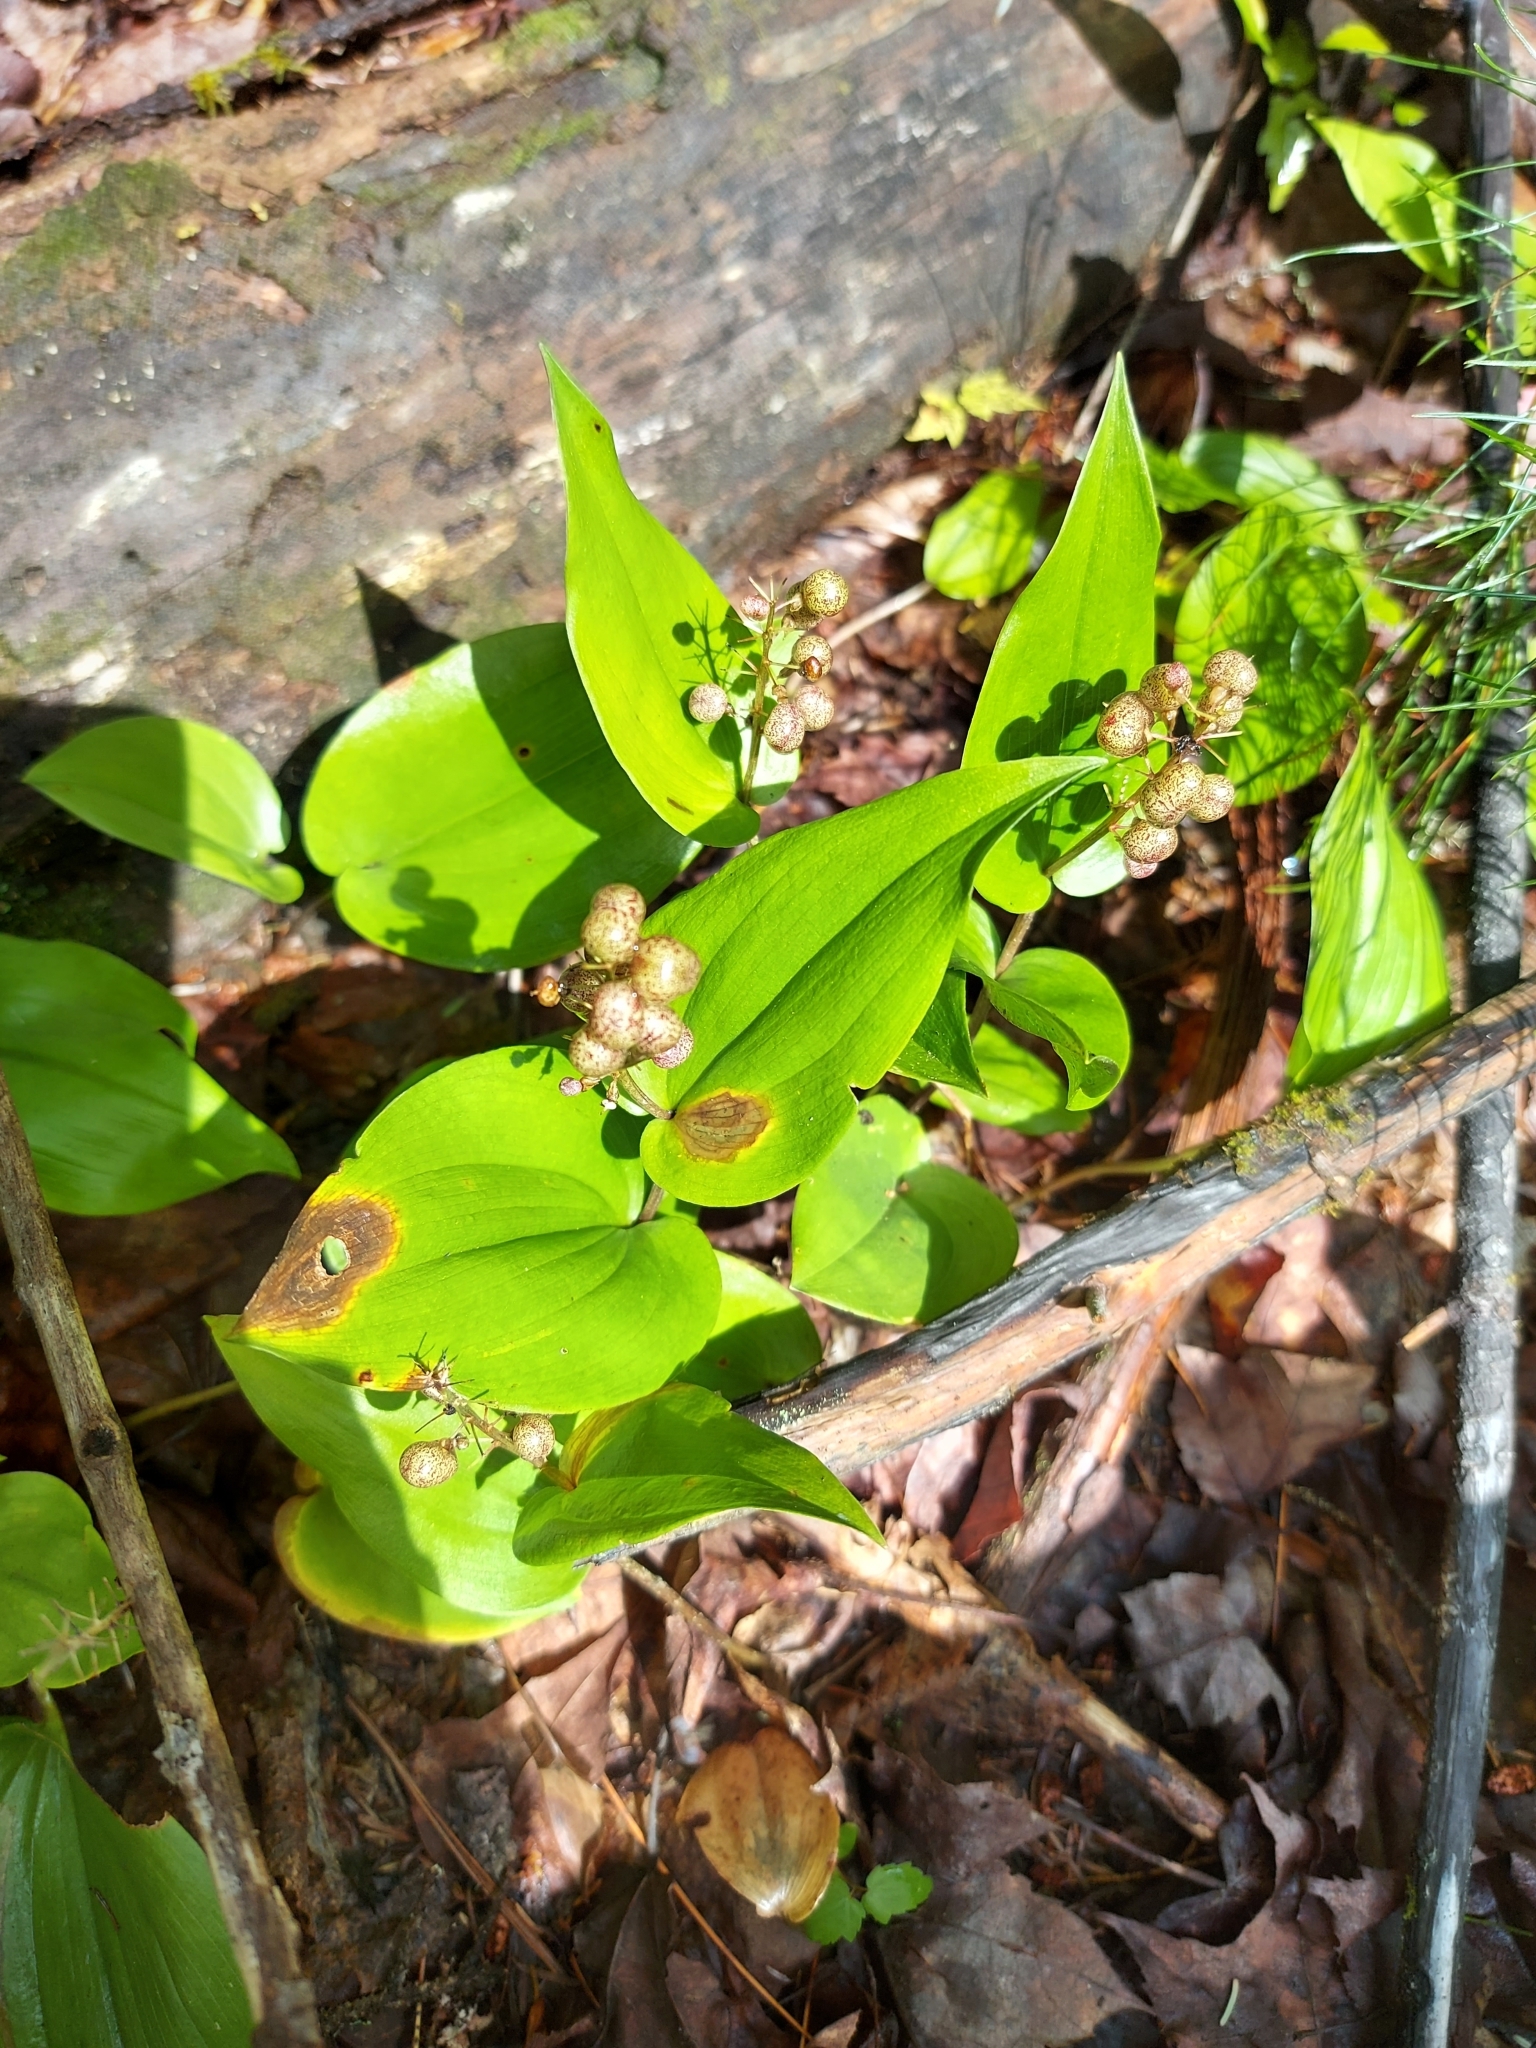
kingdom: Plantae
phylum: Tracheophyta
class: Liliopsida
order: Asparagales
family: Asparagaceae
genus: Maianthemum
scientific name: Maianthemum canadense
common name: False lily-of-the-valley
